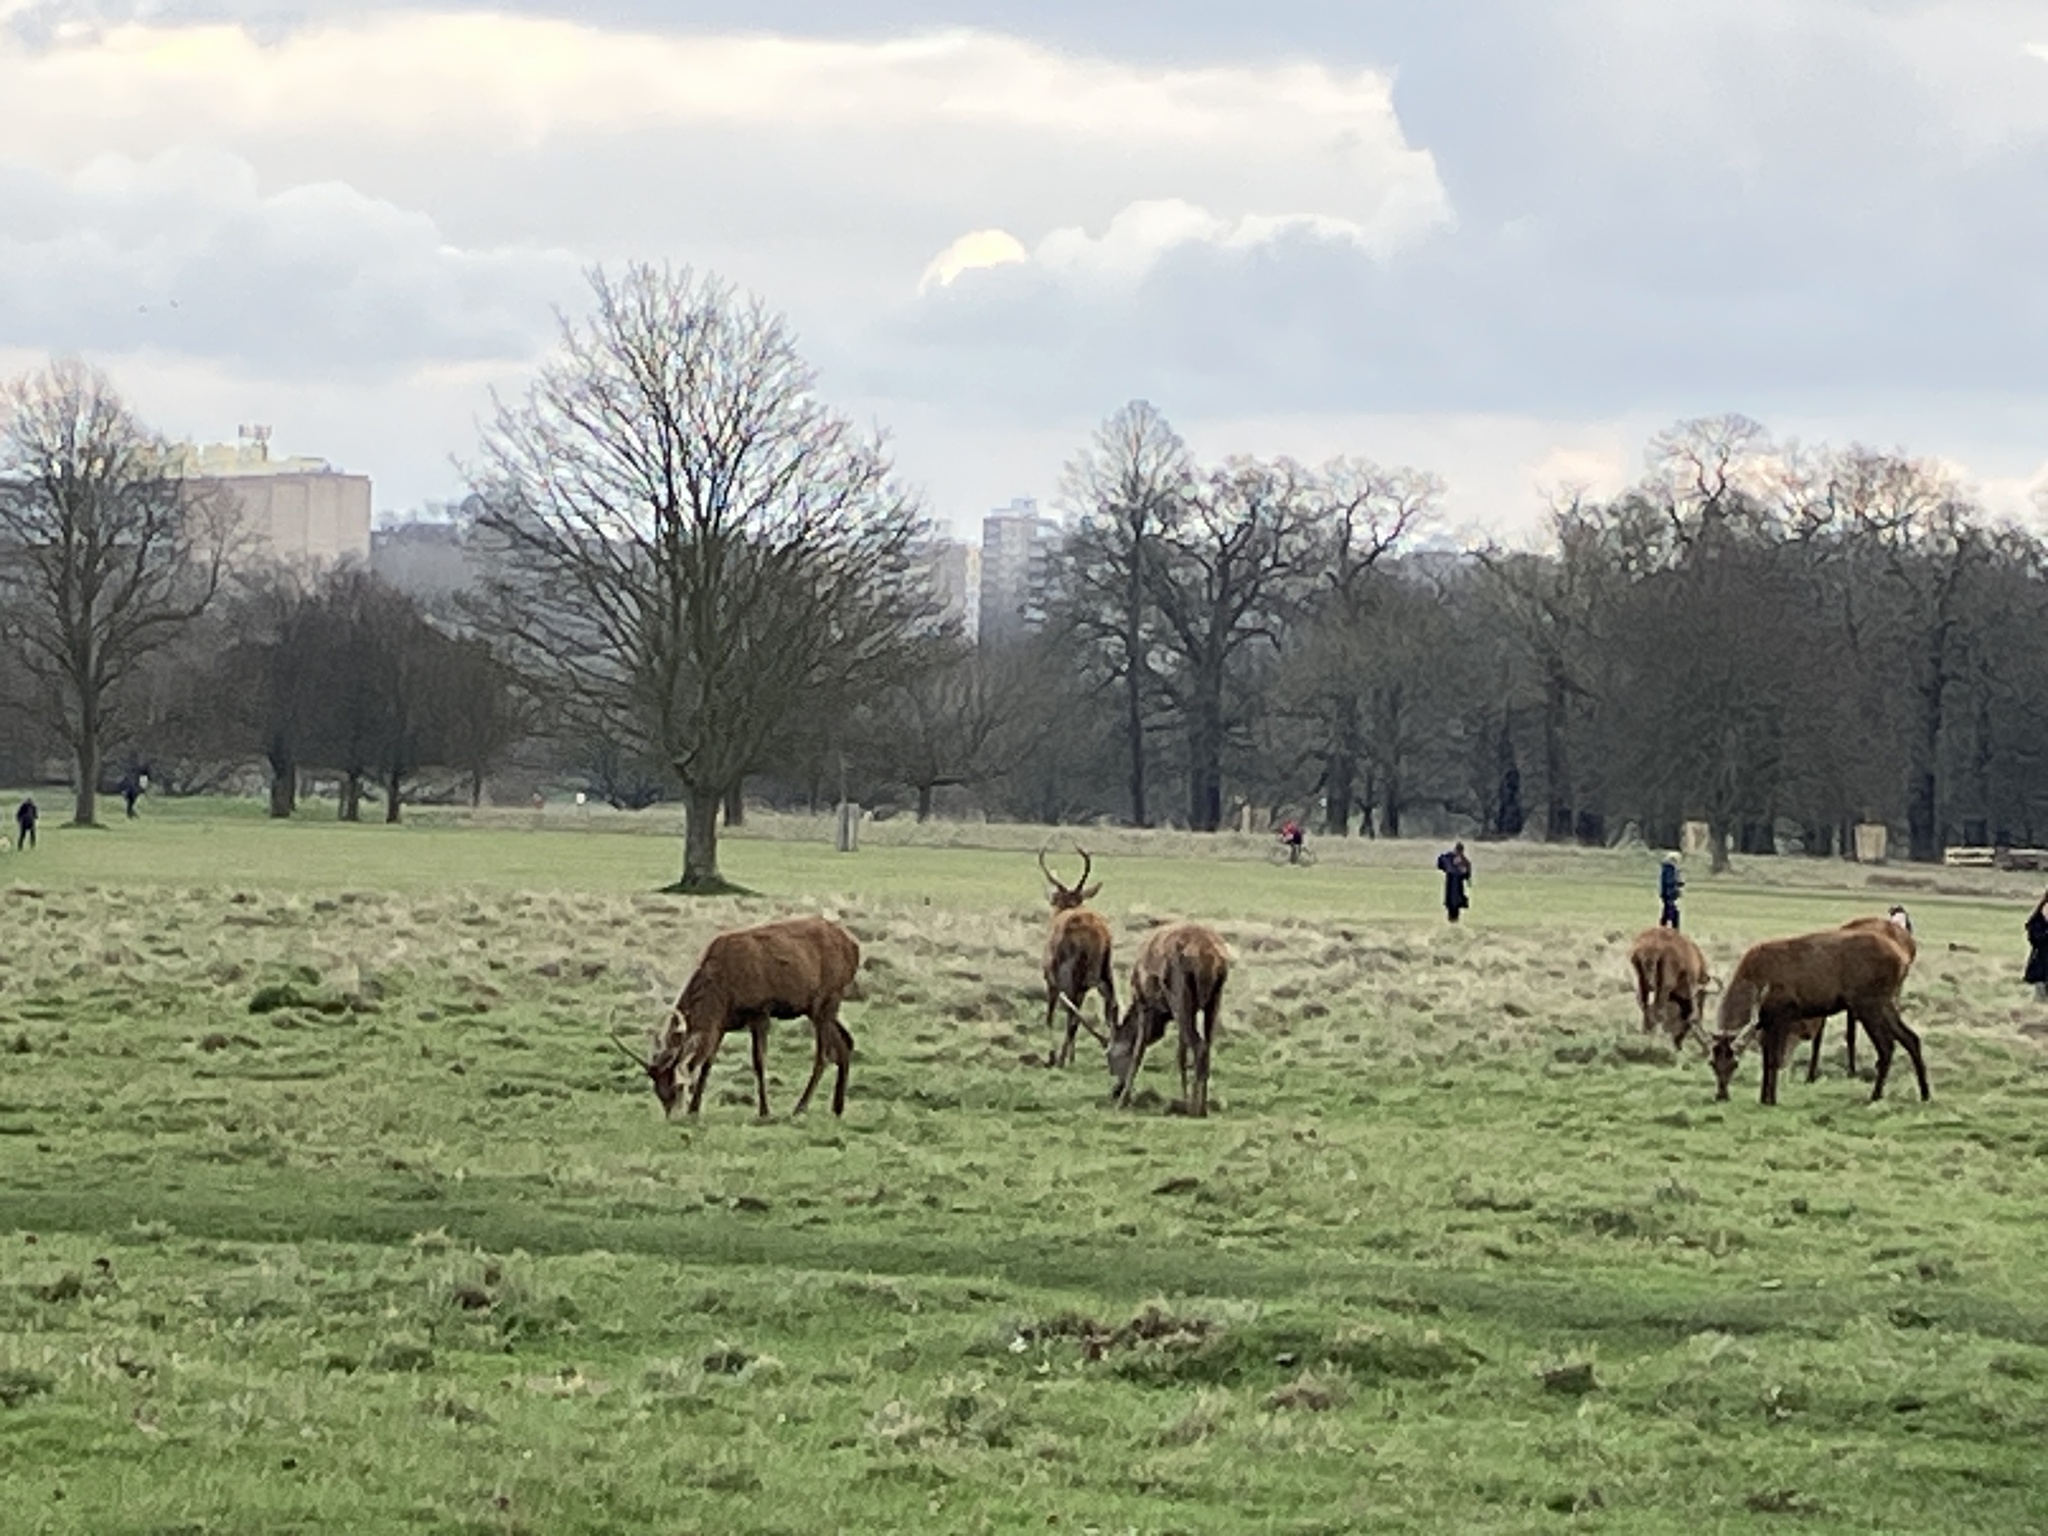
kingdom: Animalia
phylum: Chordata
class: Mammalia
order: Artiodactyla
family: Cervidae
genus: Cervus
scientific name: Cervus elaphus
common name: Red deer
